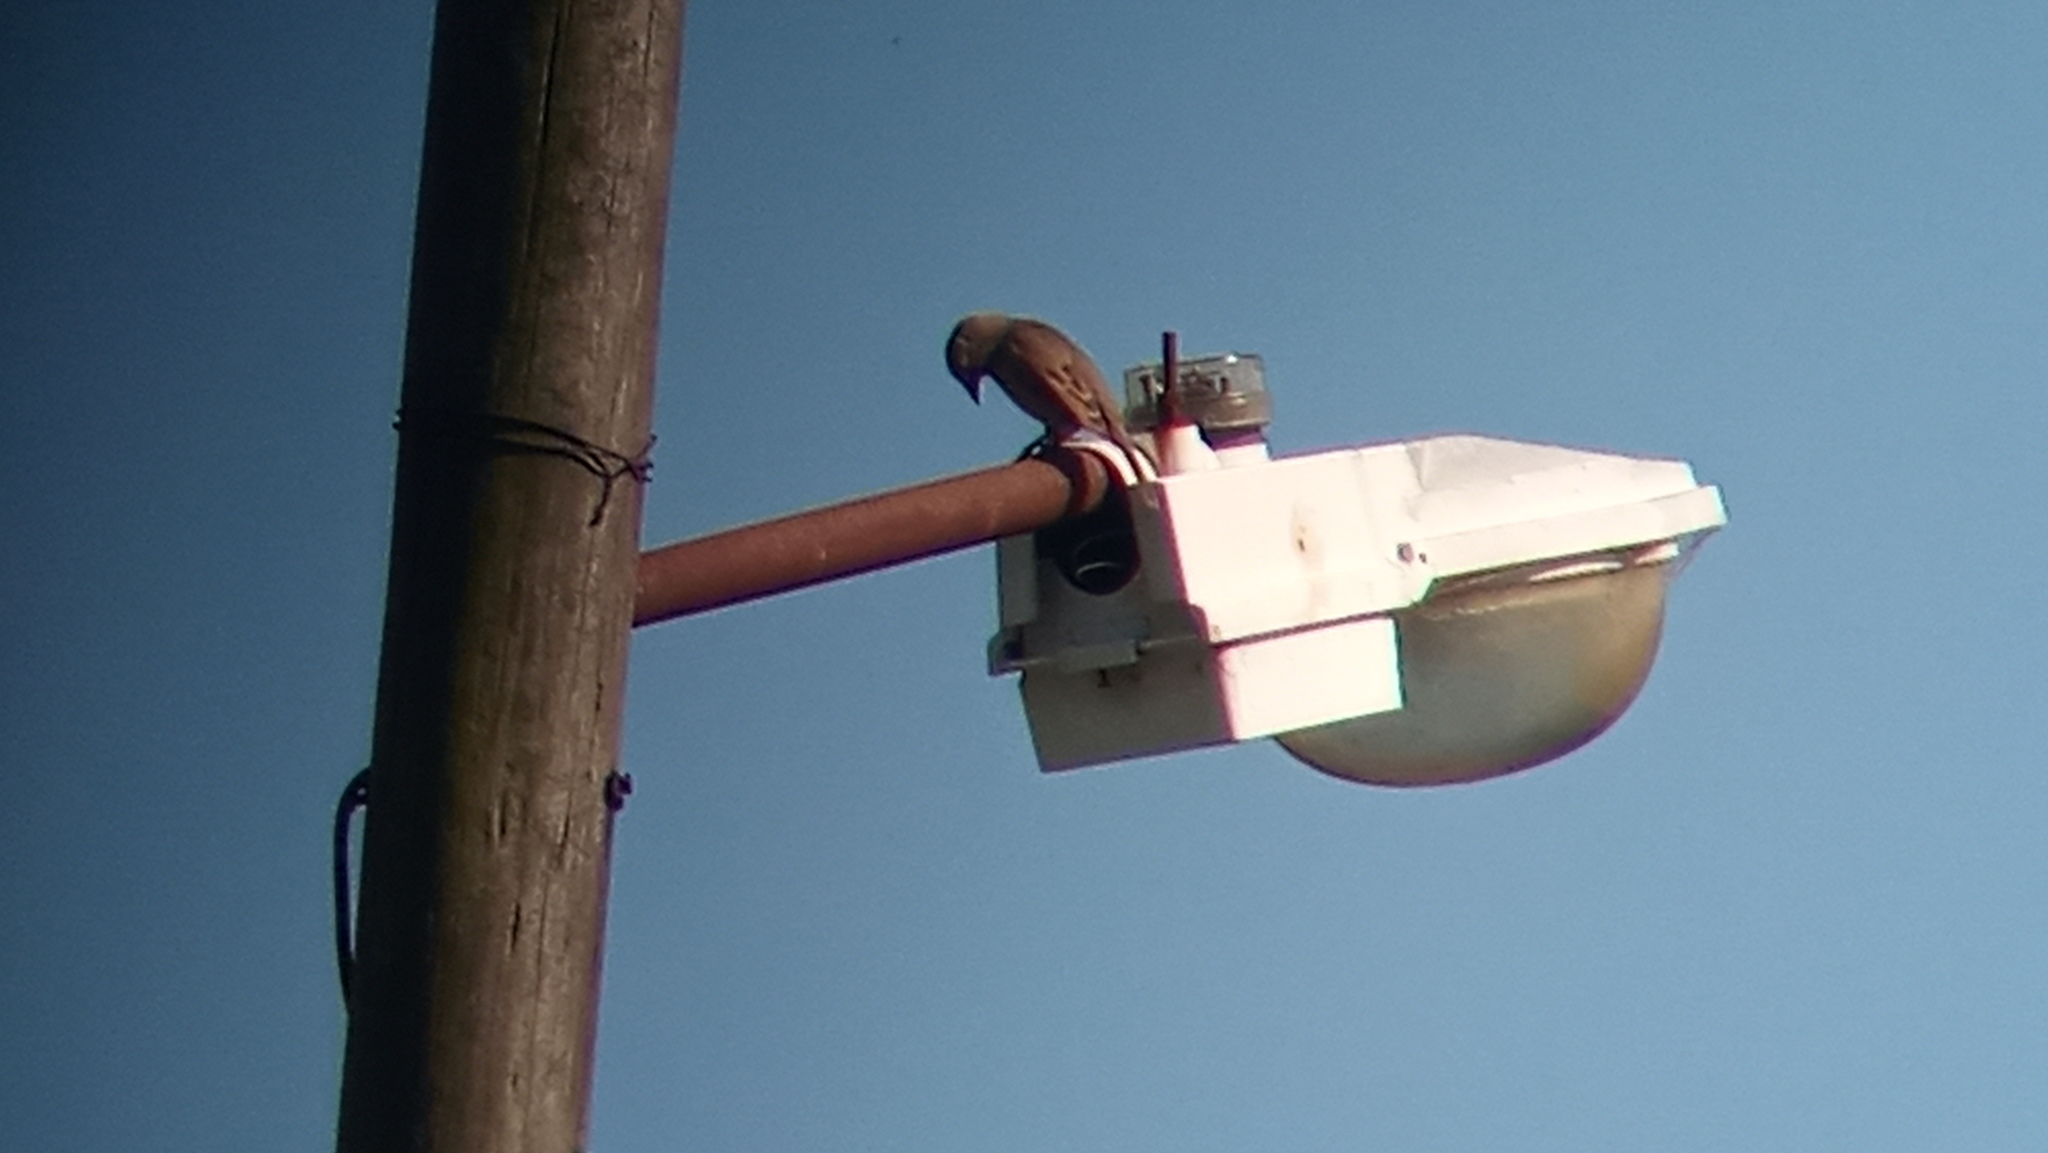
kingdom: Animalia
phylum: Chordata
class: Aves
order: Passeriformes
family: Icteridae
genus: Agelaioides
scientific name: Agelaioides badius
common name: Baywing
